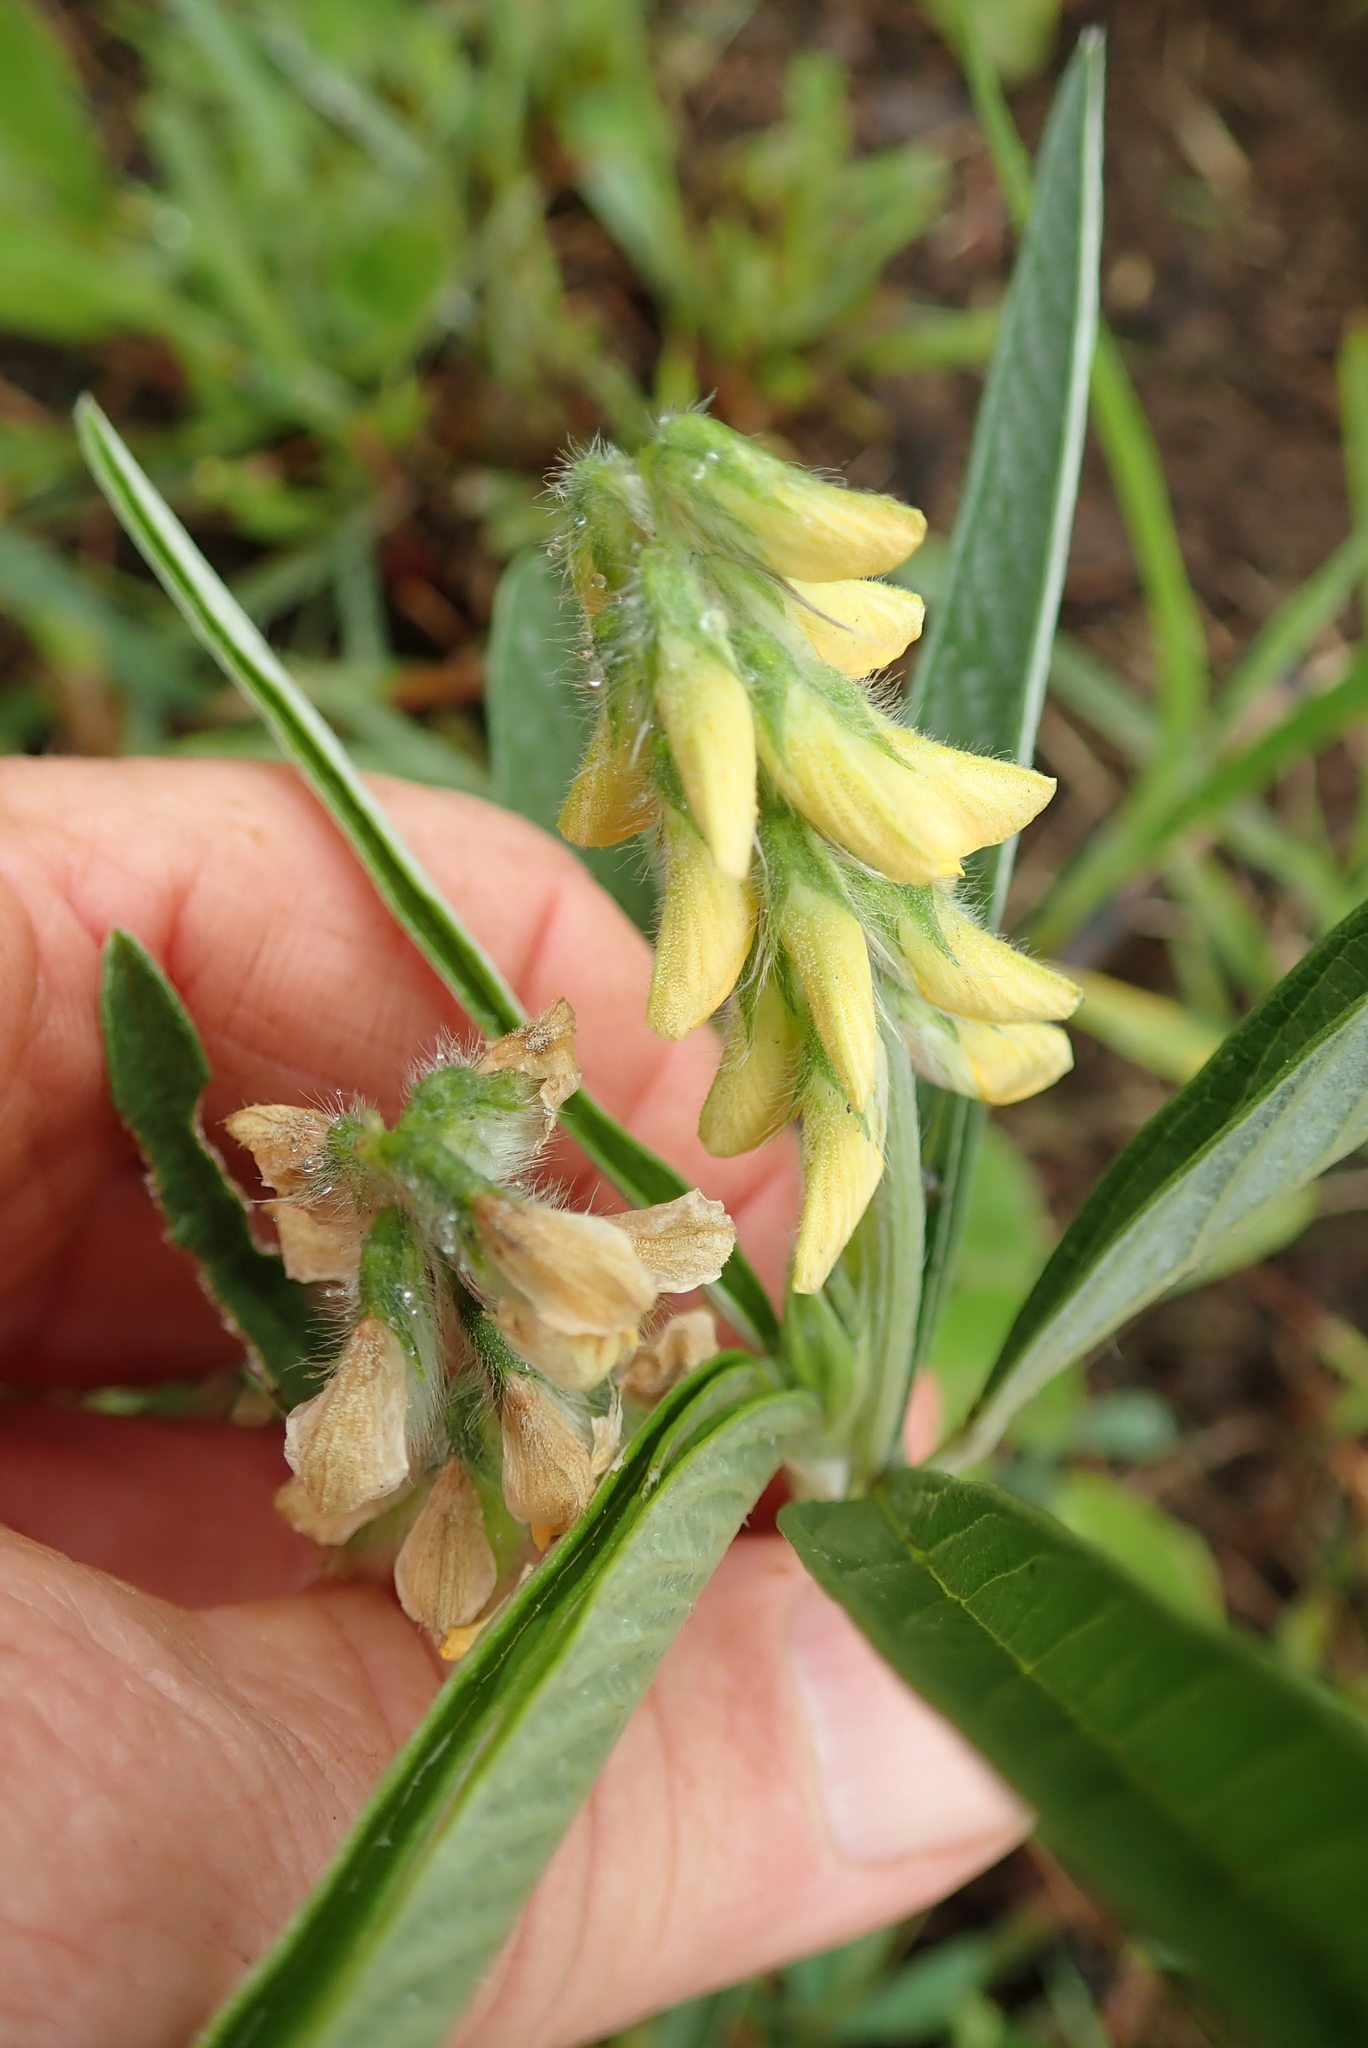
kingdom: Plantae
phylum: Tracheophyta
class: Magnoliopsida
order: Fabales
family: Fabaceae
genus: Eriosema
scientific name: Eriosema salignum
